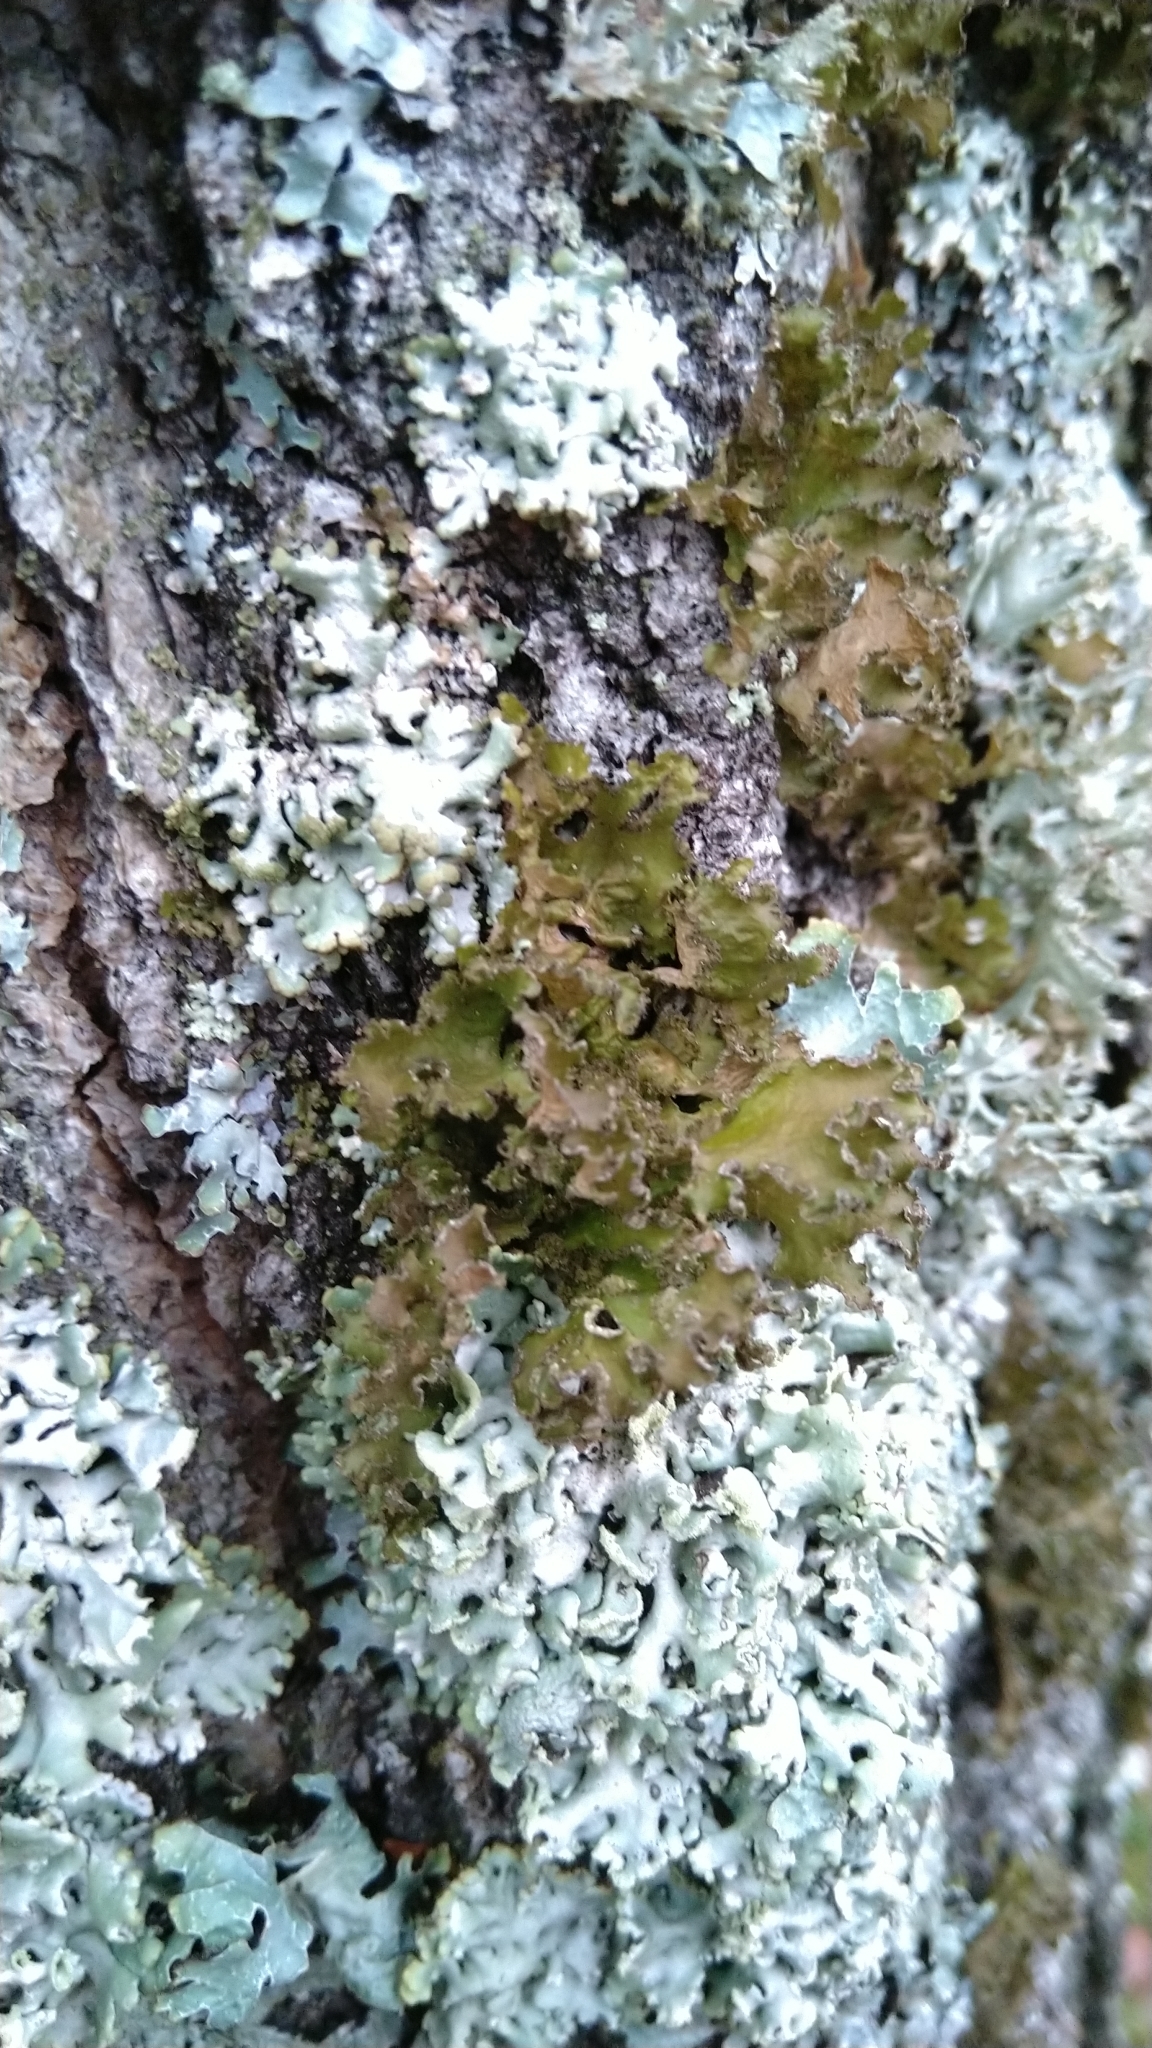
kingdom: Fungi
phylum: Ascomycota
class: Lecanoromycetes
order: Lecanorales
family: Parmeliaceae
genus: Nephromopsis
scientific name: Nephromopsis chlorophylla
